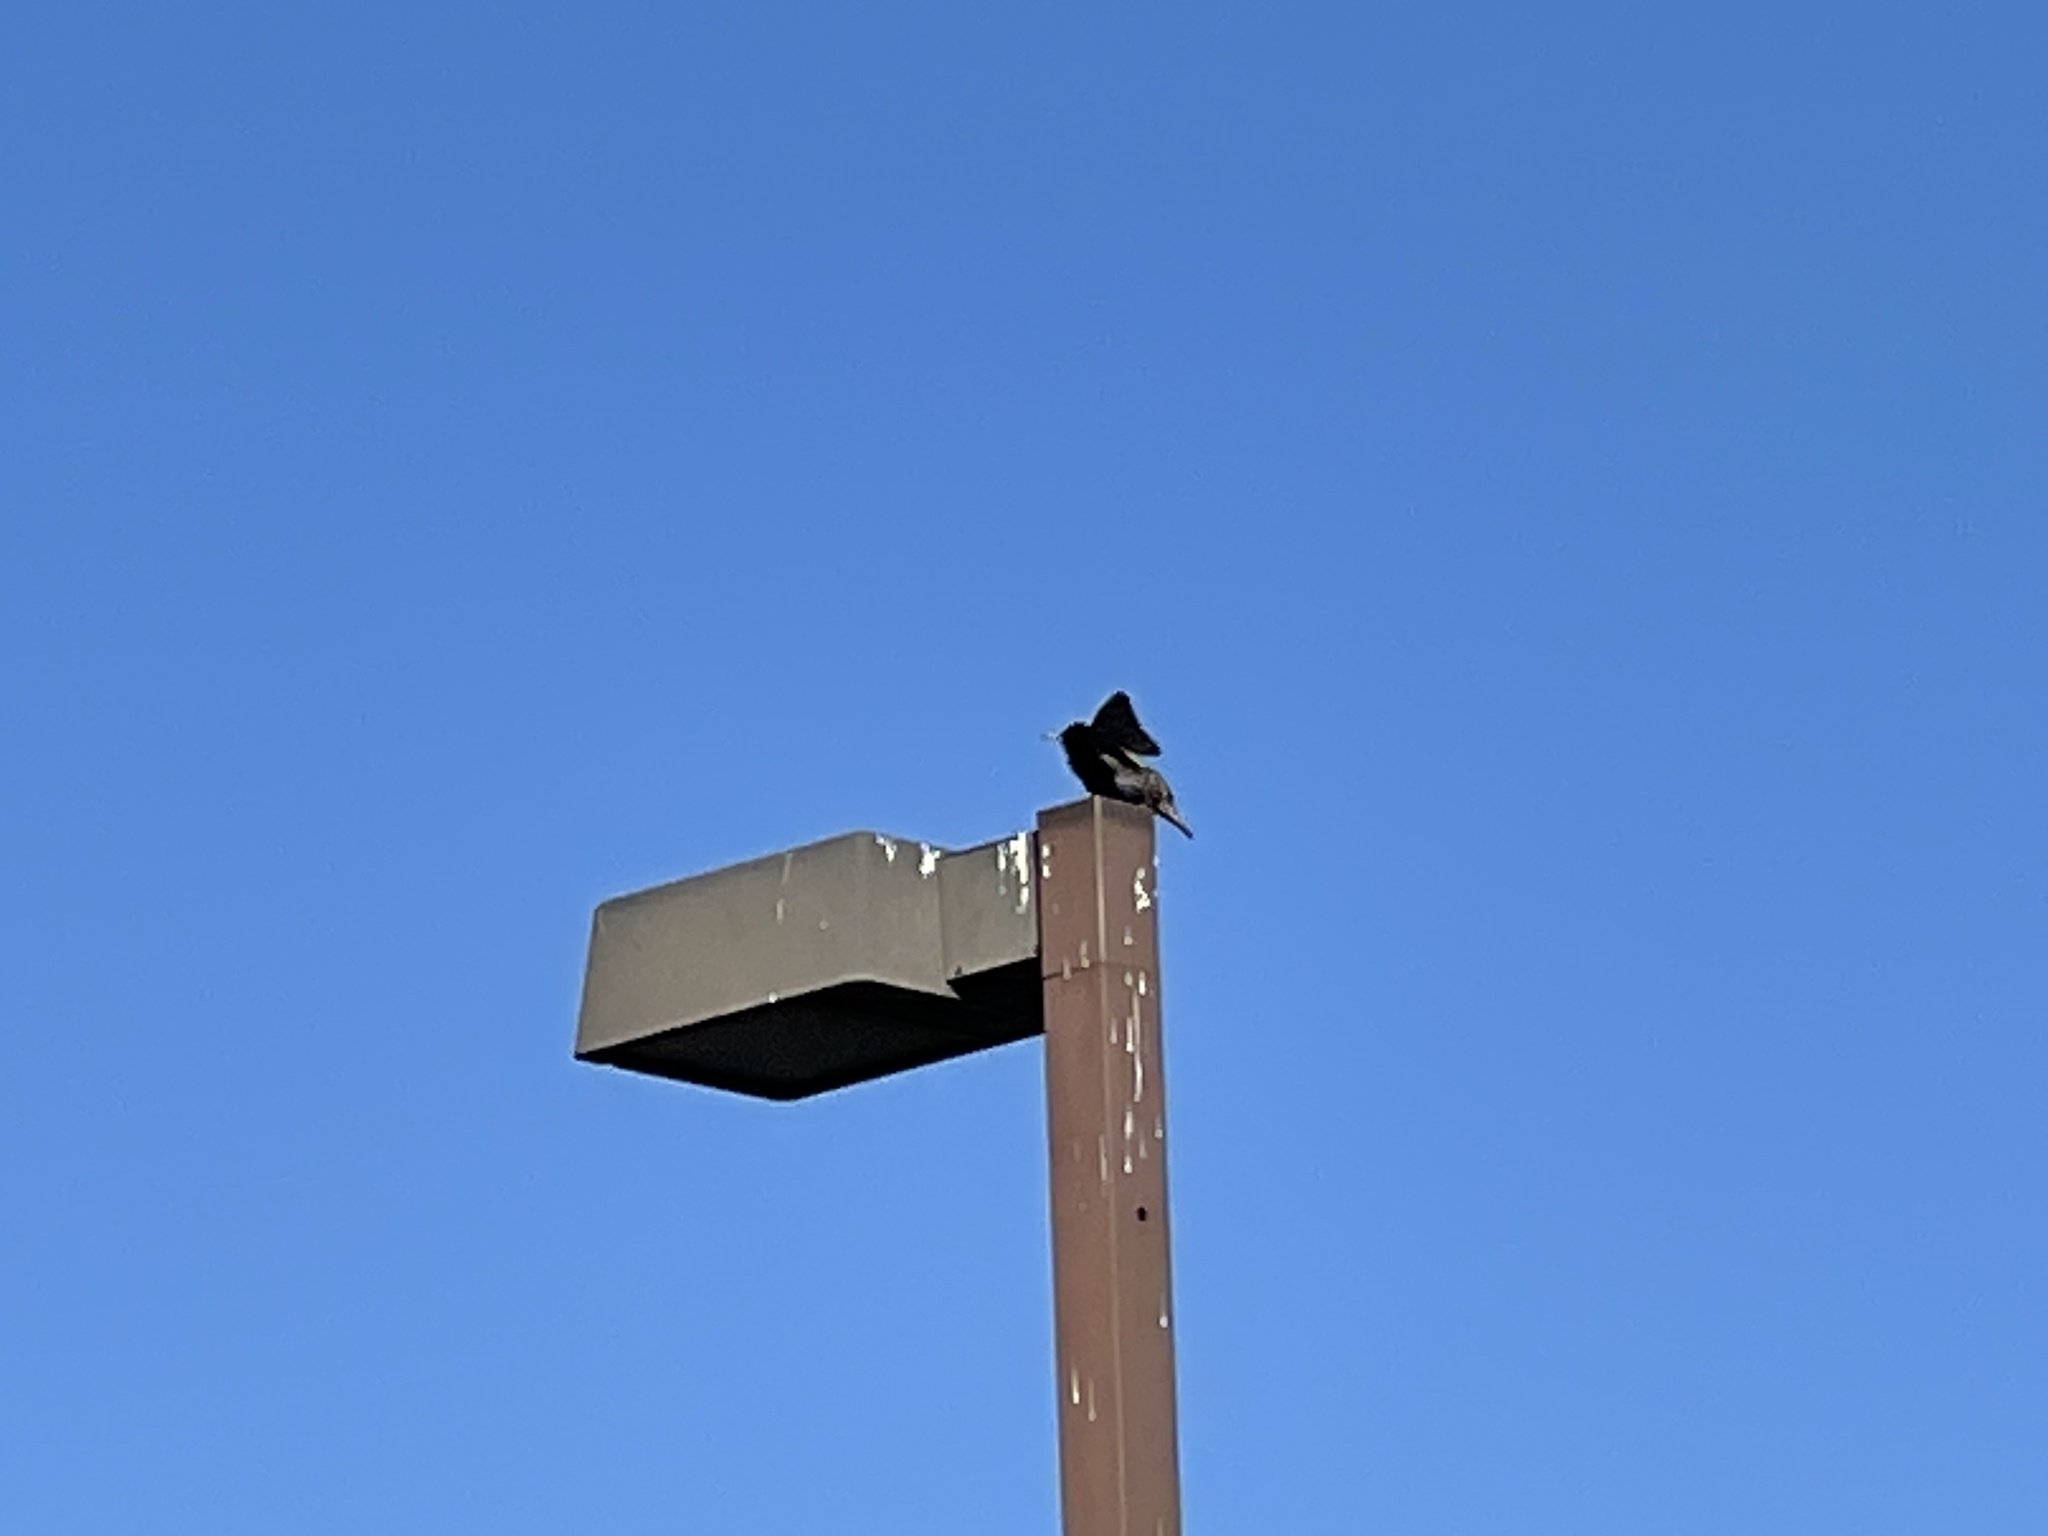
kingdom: Animalia
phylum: Chordata
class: Aves
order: Passeriformes
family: Sturnidae
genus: Sturnus
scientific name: Sturnus vulgaris
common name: Common starling
